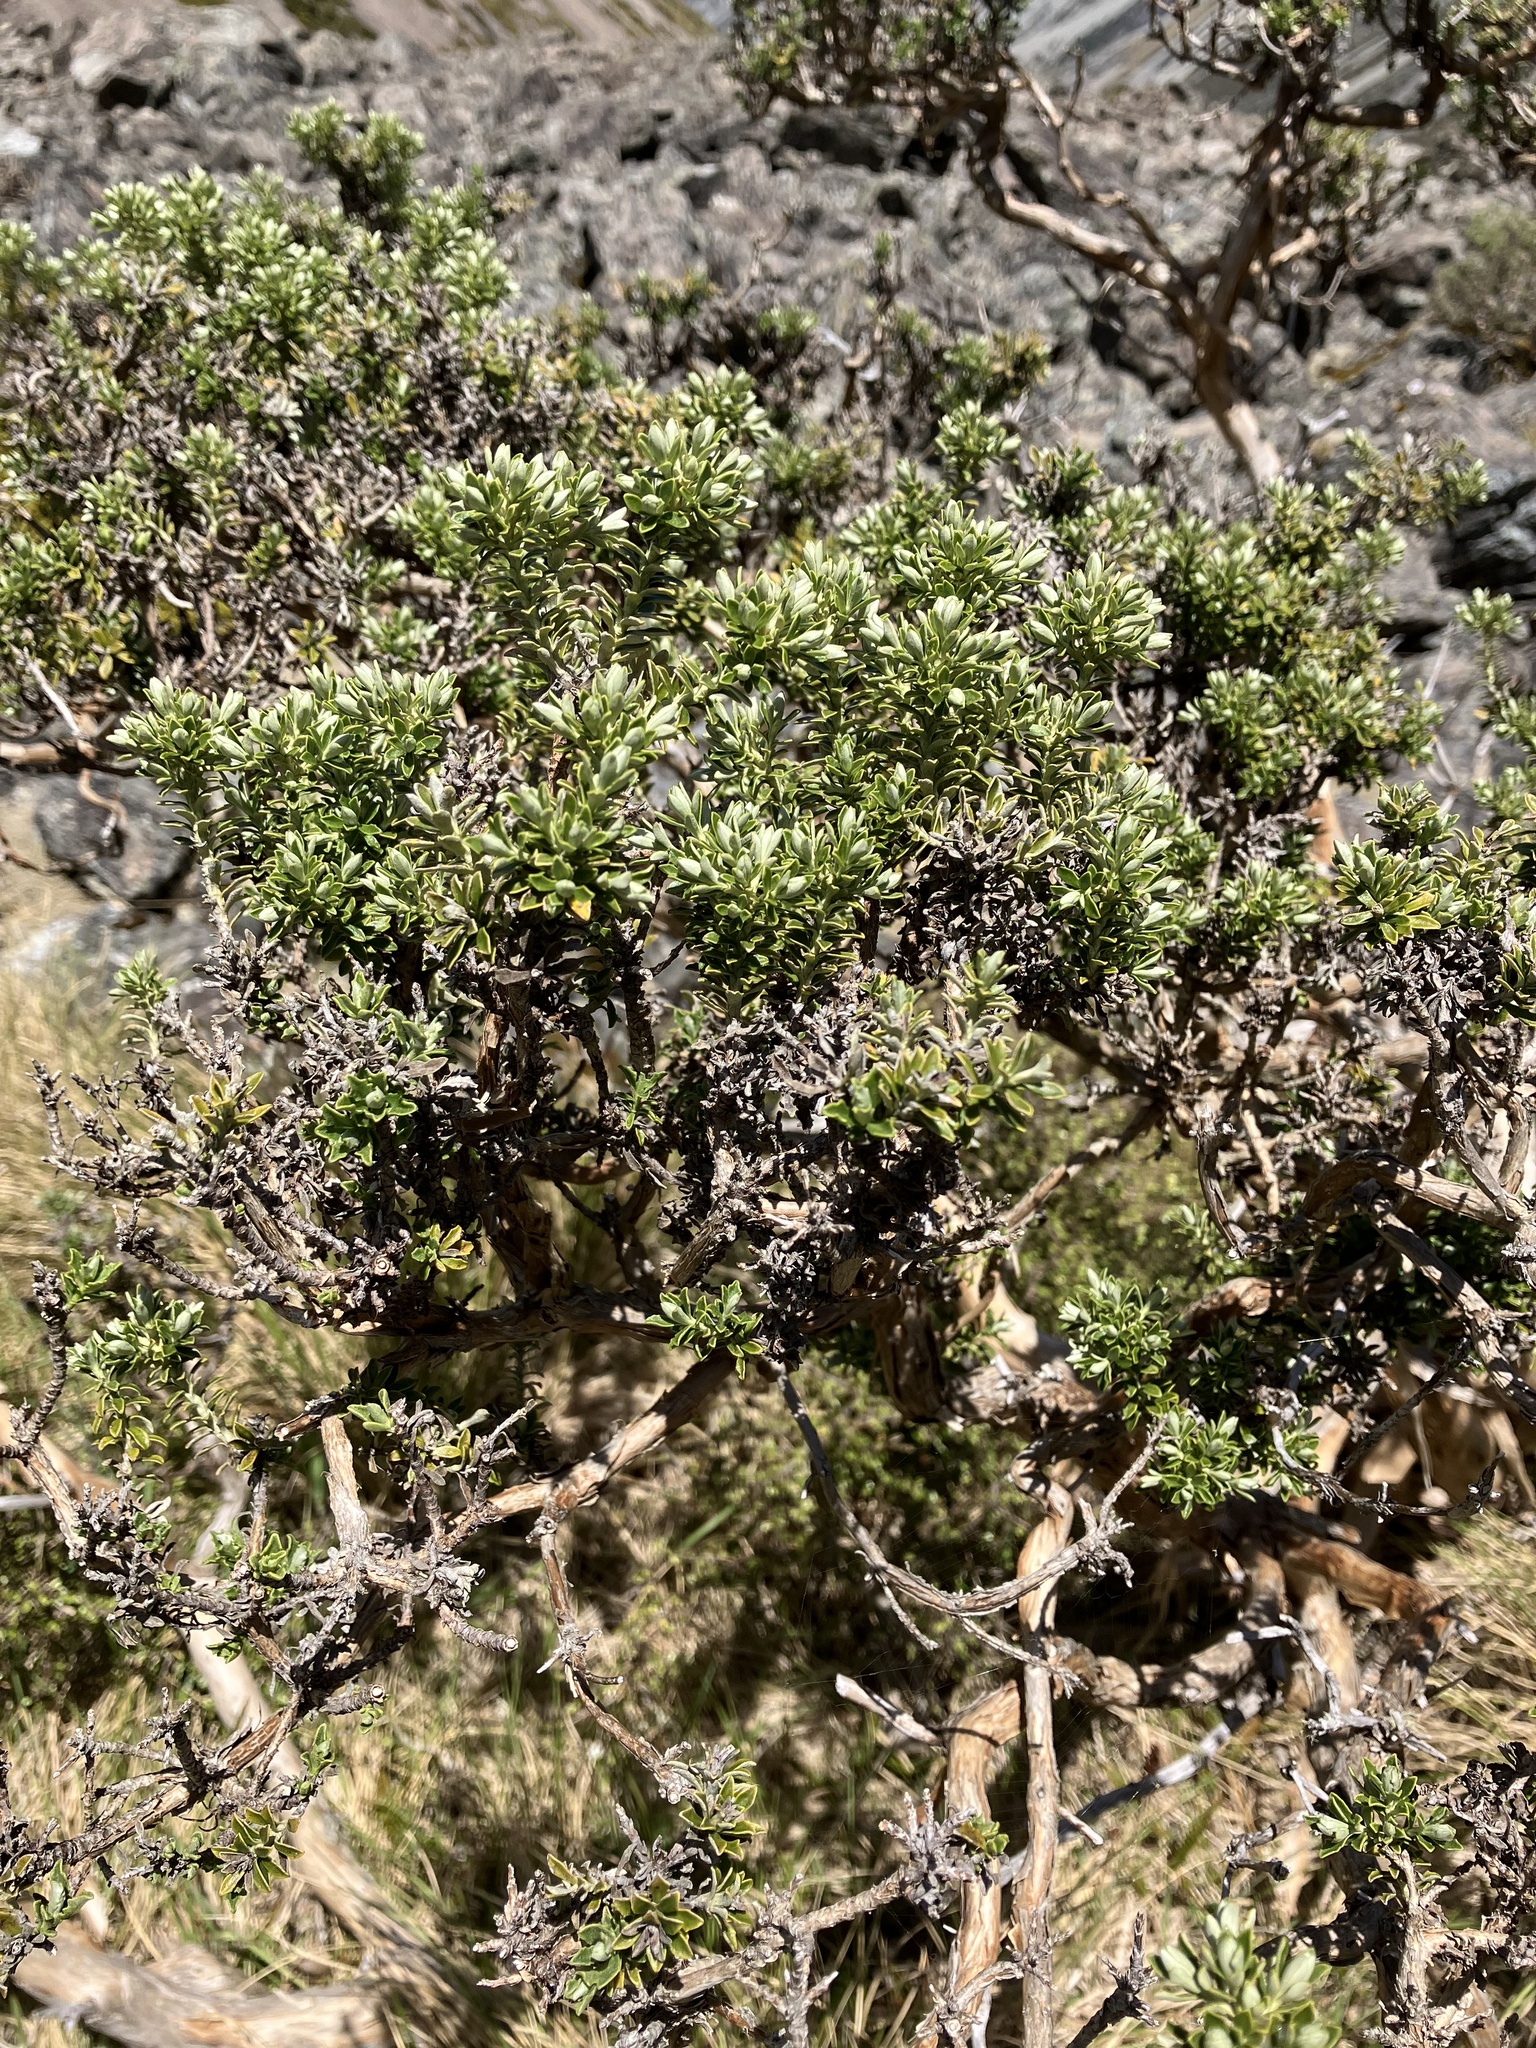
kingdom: Plantae
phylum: Tracheophyta
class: Magnoliopsida
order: Asterales
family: Asteraceae
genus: Brachyglottis
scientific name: Brachyglottis cassinioides
